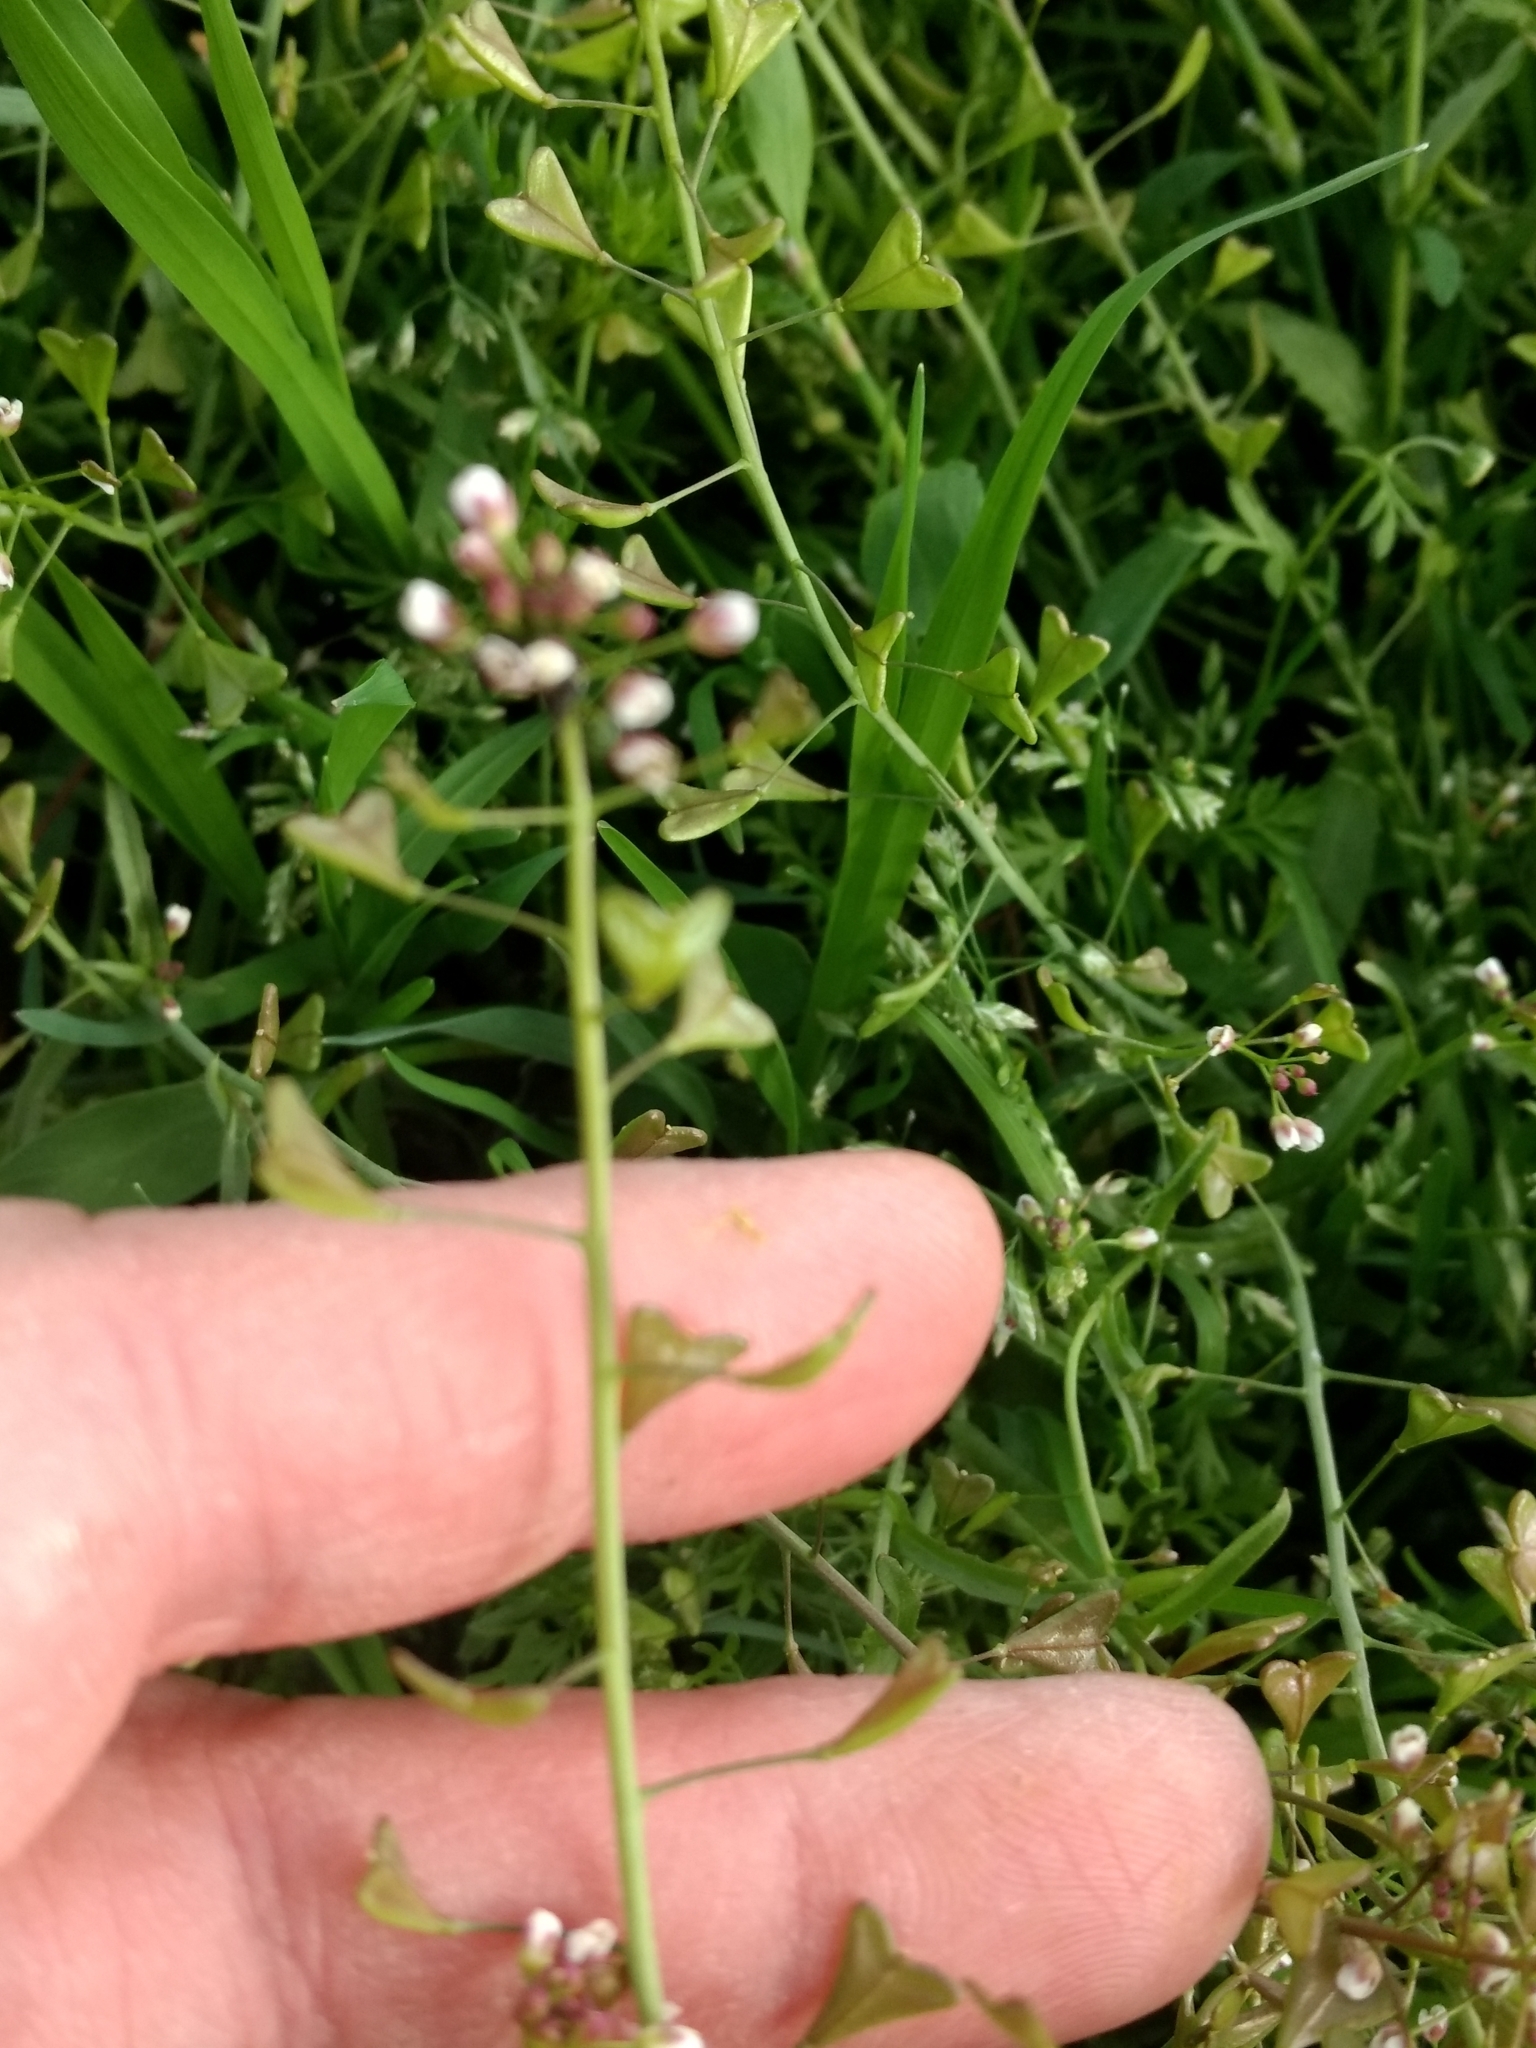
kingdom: Plantae
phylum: Tracheophyta
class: Magnoliopsida
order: Brassicales
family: Brassicaceae
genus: Capsella
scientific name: Capsella bursa-pastoris
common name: Shepherd's purse
